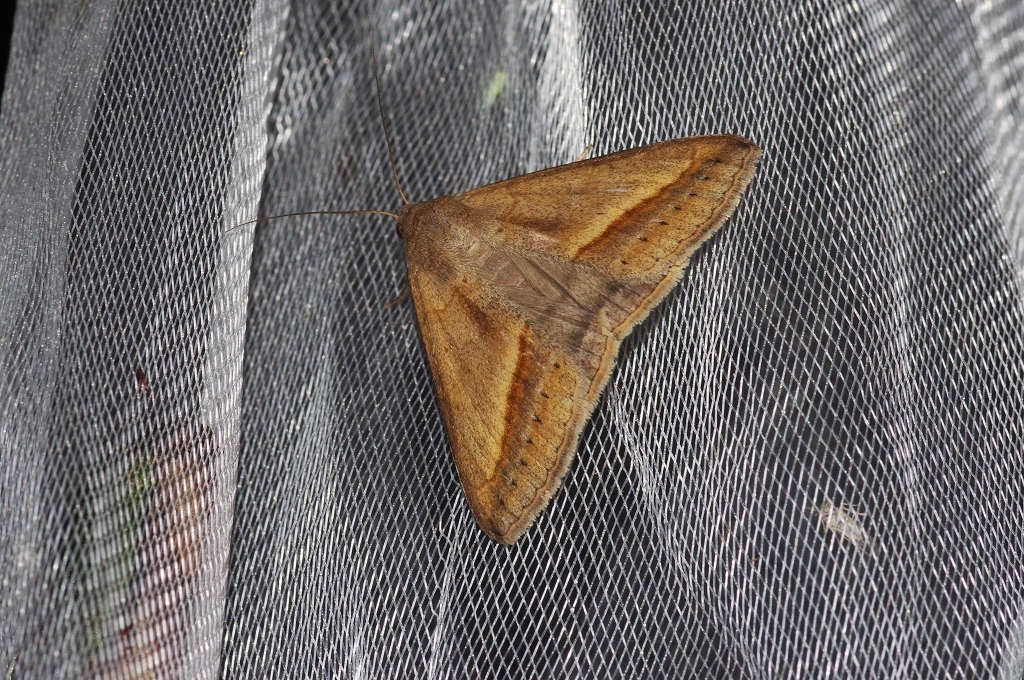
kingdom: Animalia
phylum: Arthropoda
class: Insecta
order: Lepidoptera
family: Erebidae
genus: Mocis
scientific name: Mocis frugalis
